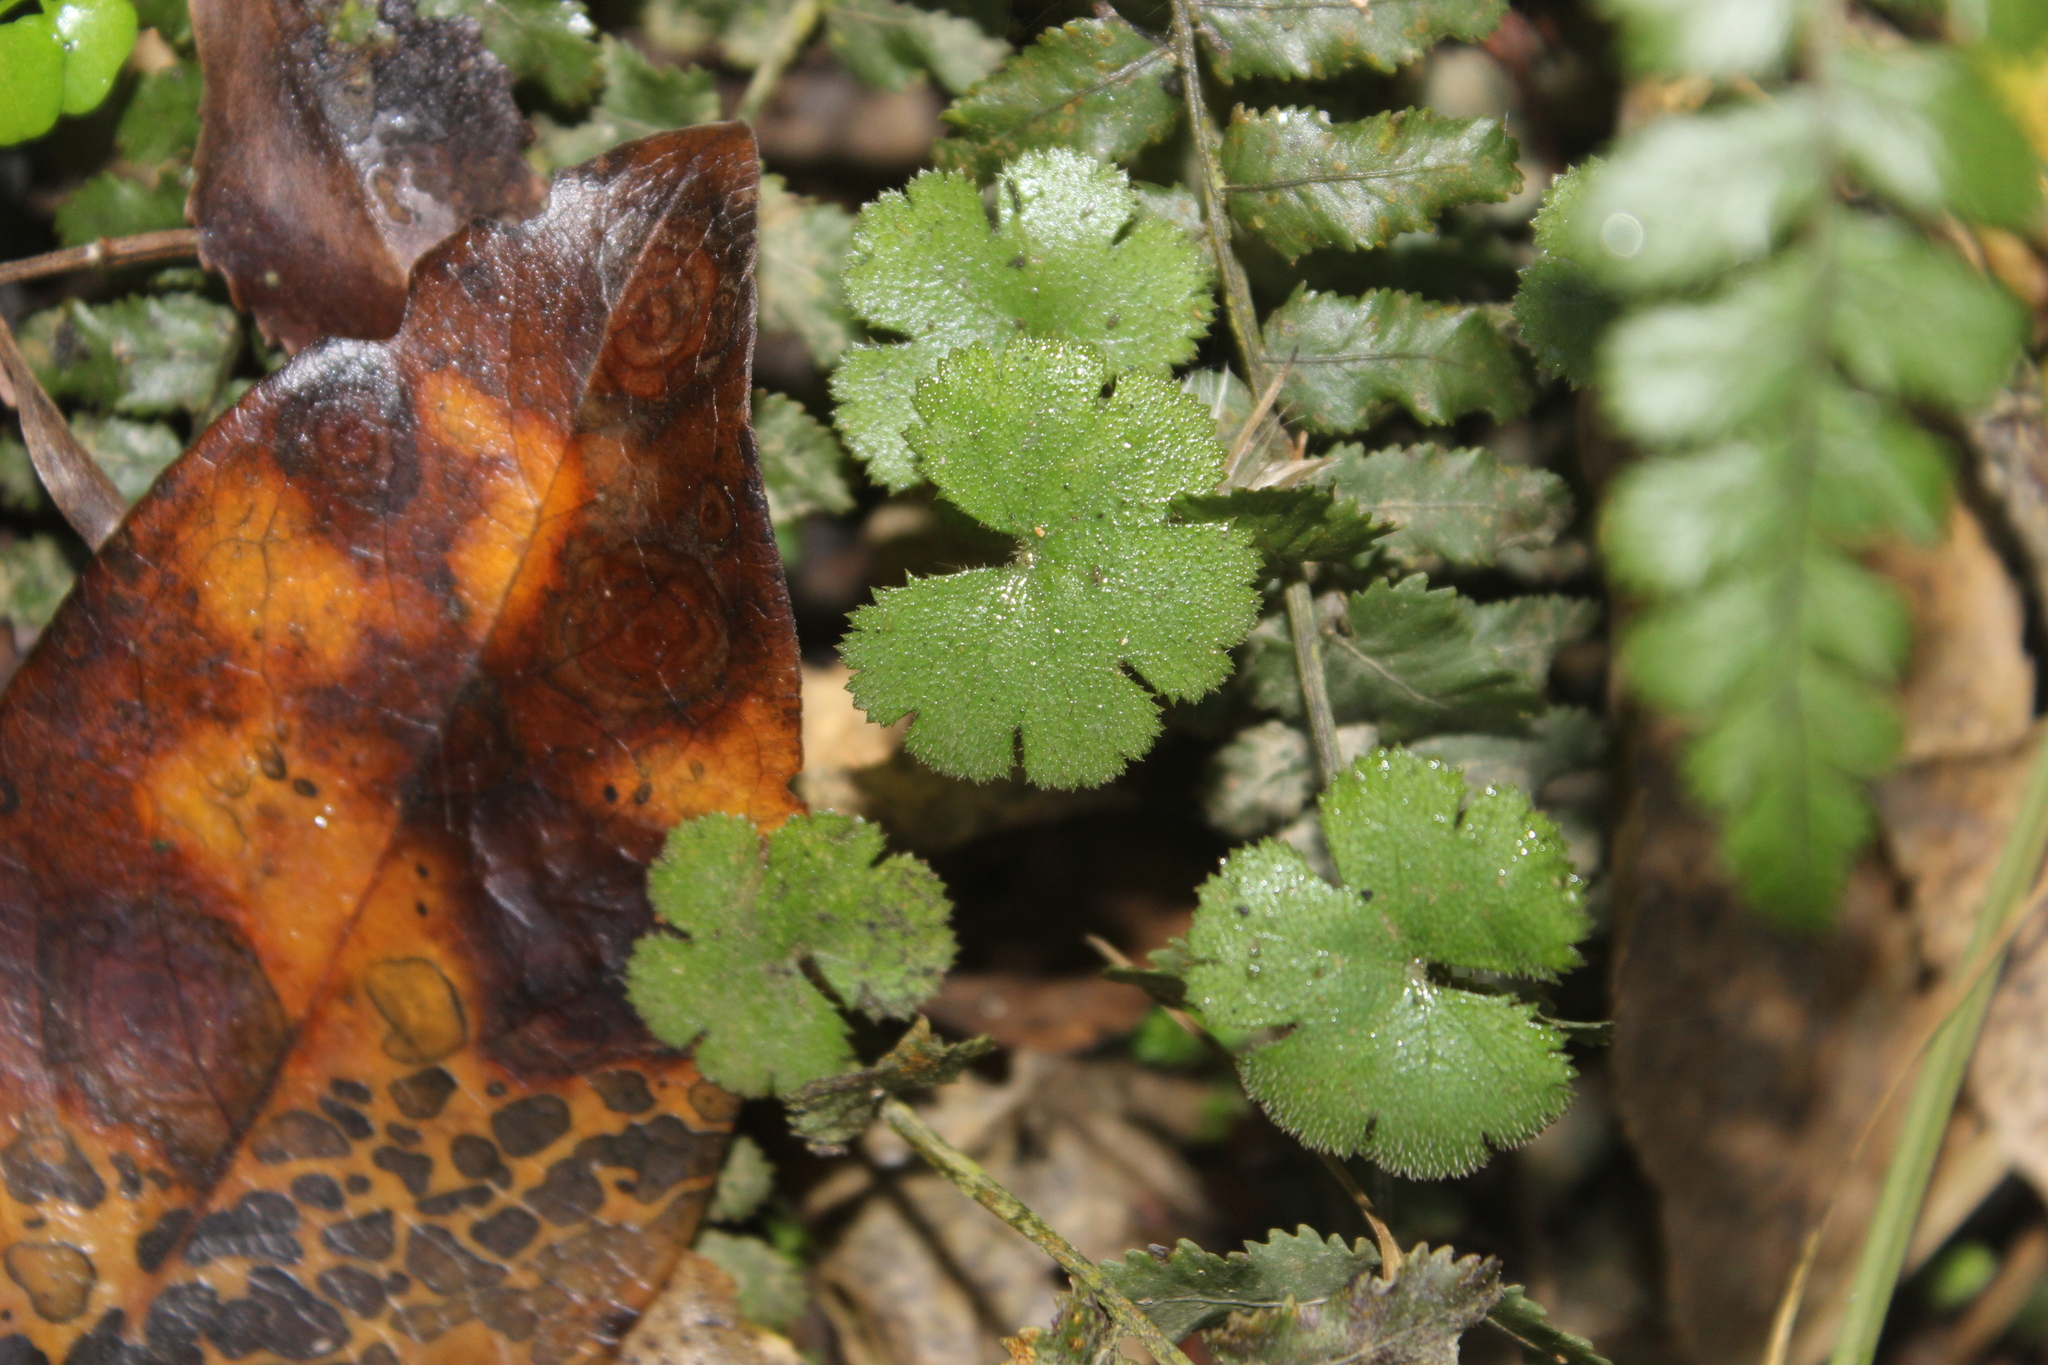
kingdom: Plantae
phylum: Tracheophyta
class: Magnoliopsida
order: Apiales
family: Araliaceae
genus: Hydrocotyle
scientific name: Hydrocotyle elongata
